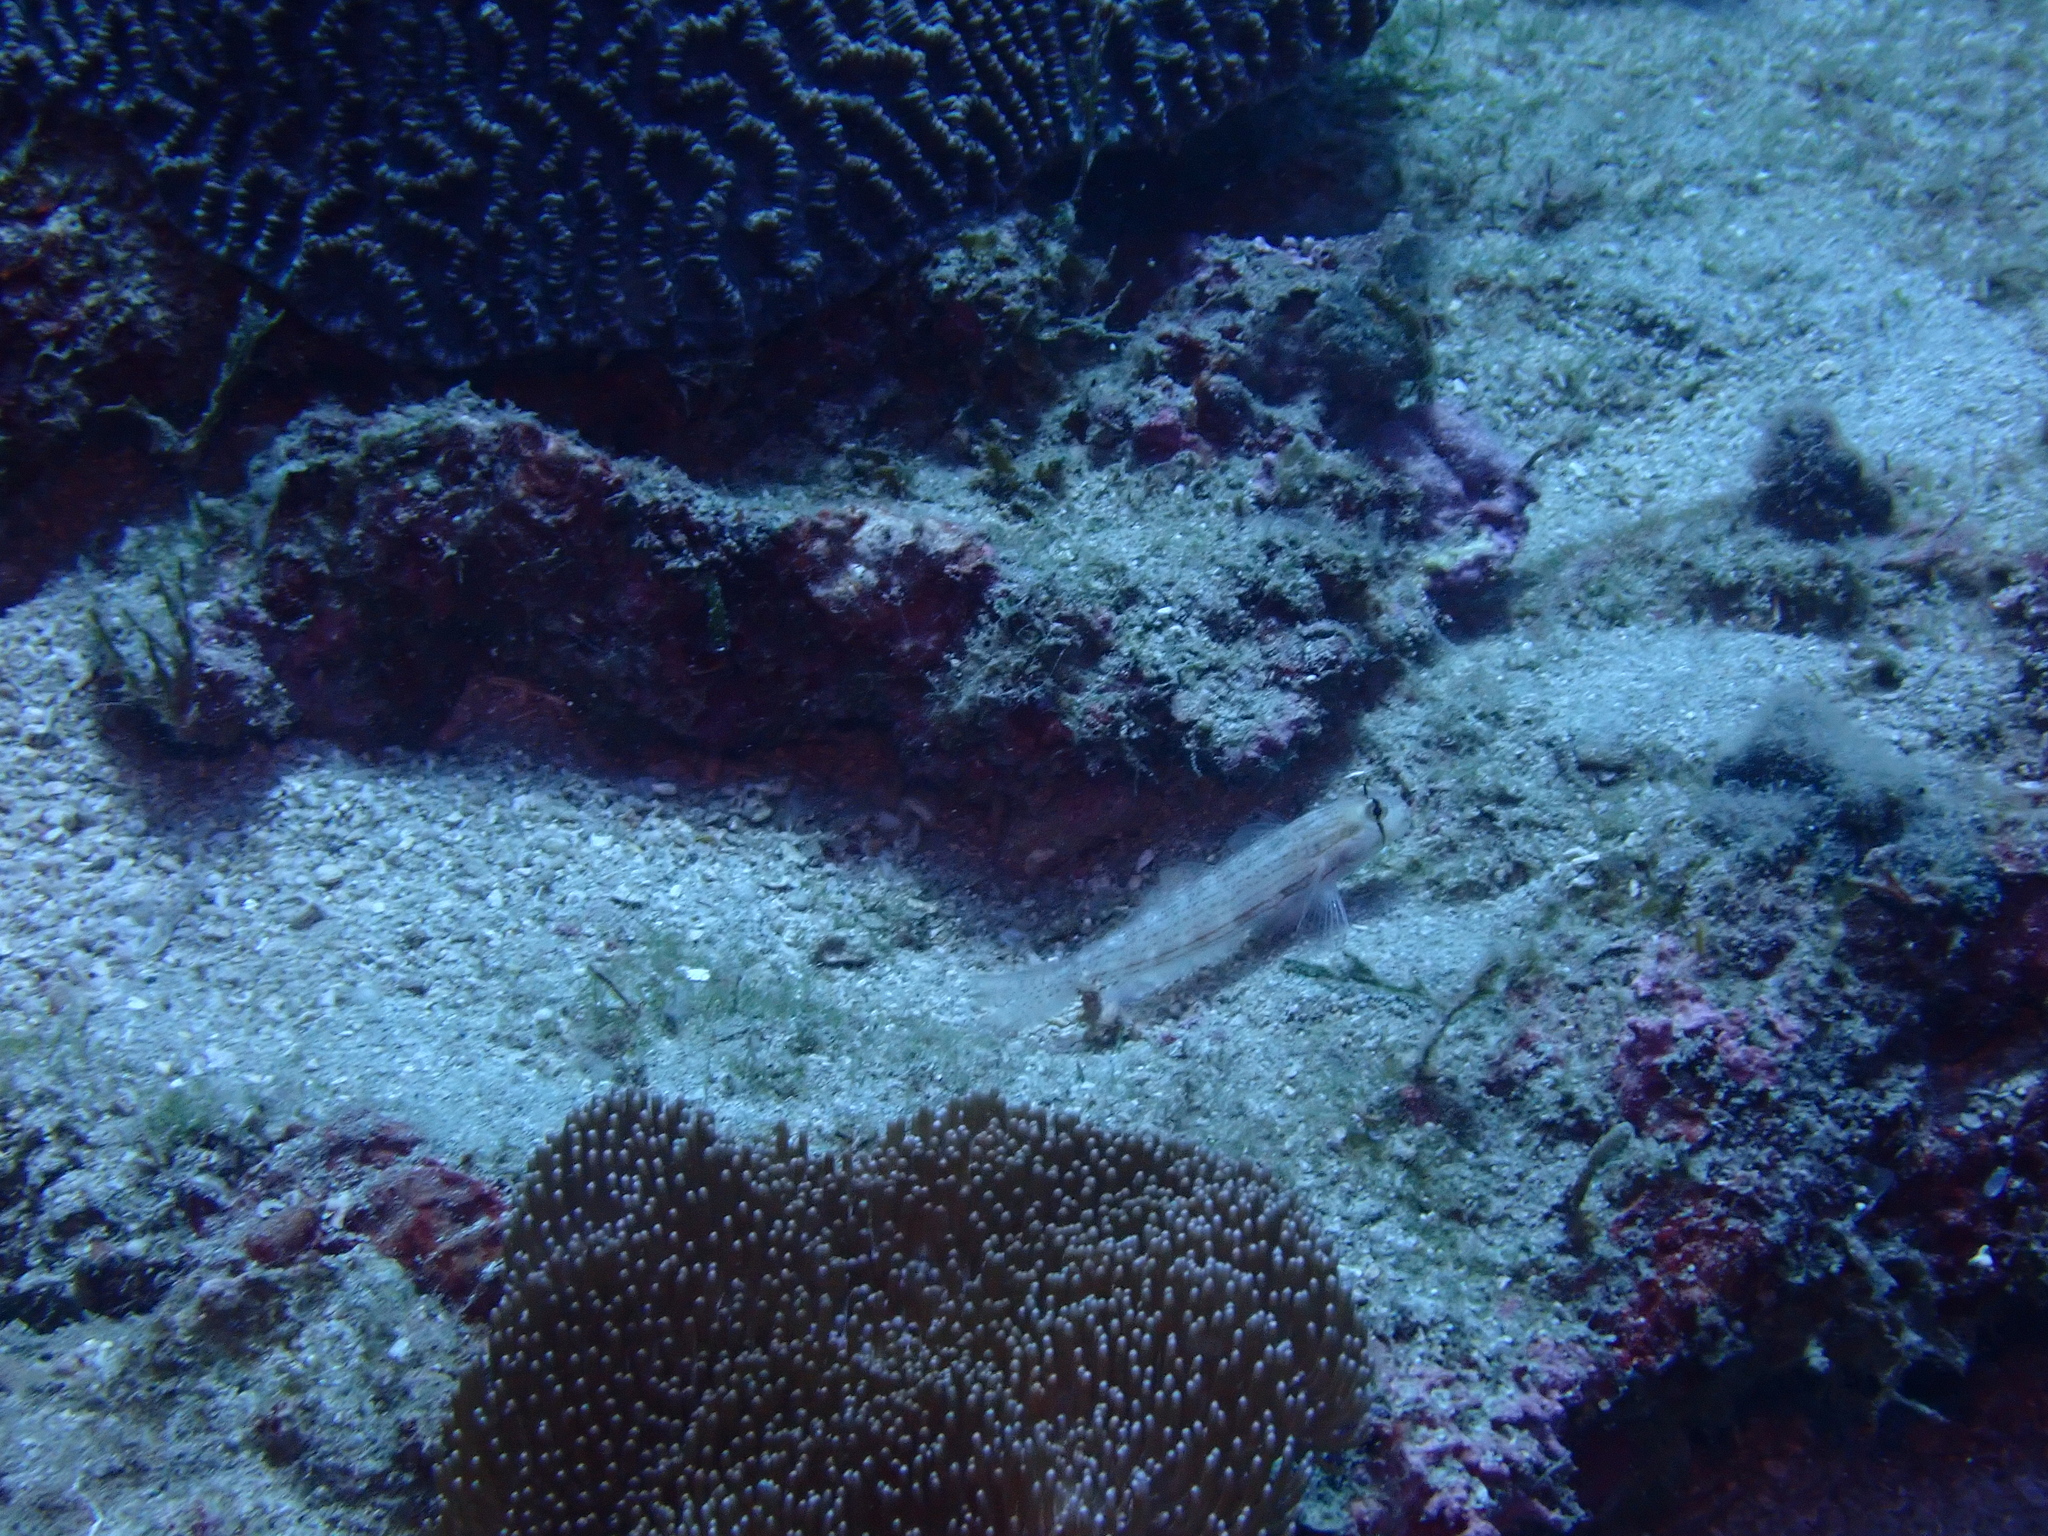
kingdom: Animalia
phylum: Chordata
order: Perciformes
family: Gobiidae
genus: Gnatholepis
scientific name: Gnatholepis cauerensis
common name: Bridled goby
